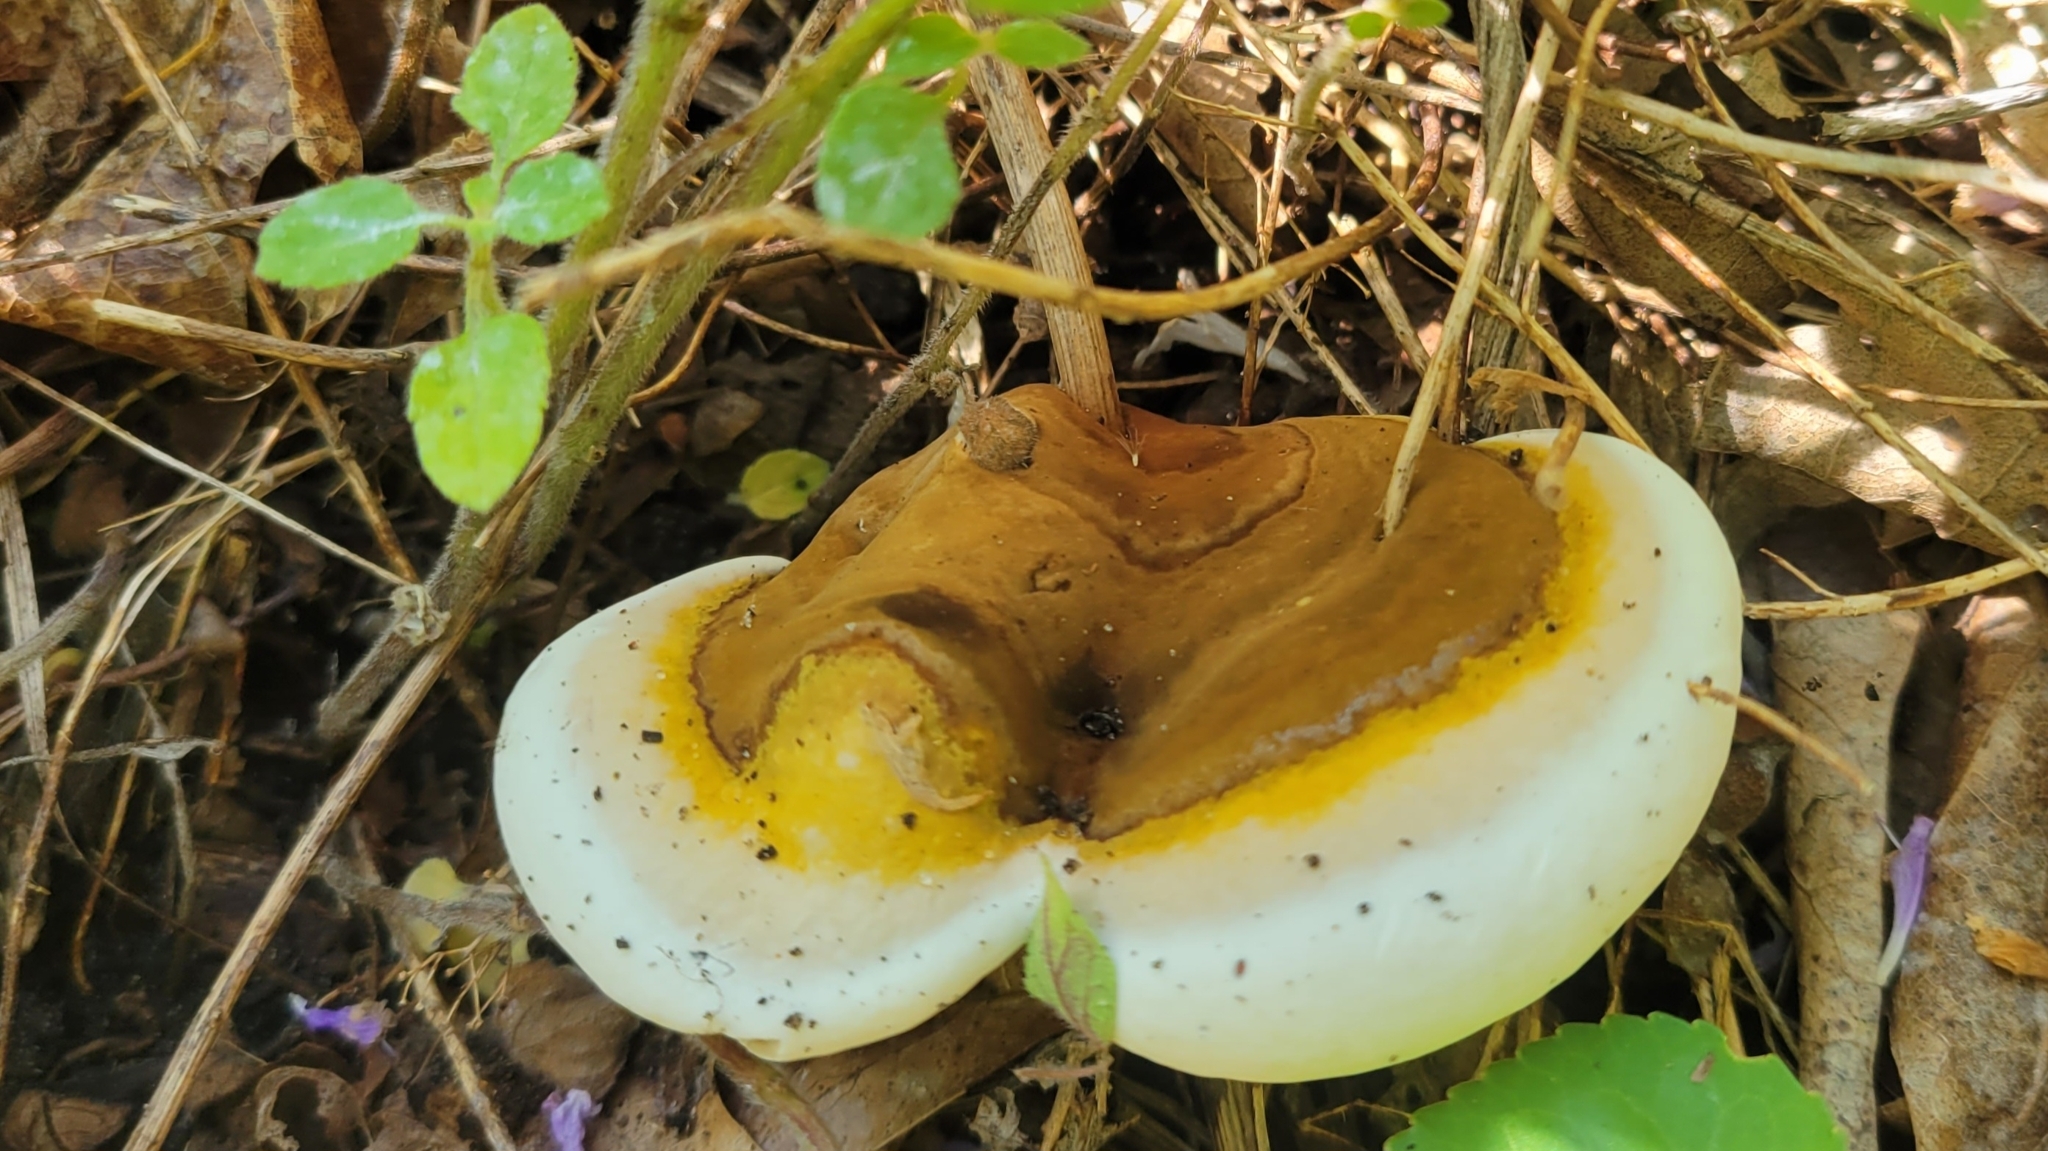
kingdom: Fungi
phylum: Basidiomycota
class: Agaricomycetes
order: Polyporales
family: Polyporaceae
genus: Ganoderma
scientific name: Ganoderma lobatum
